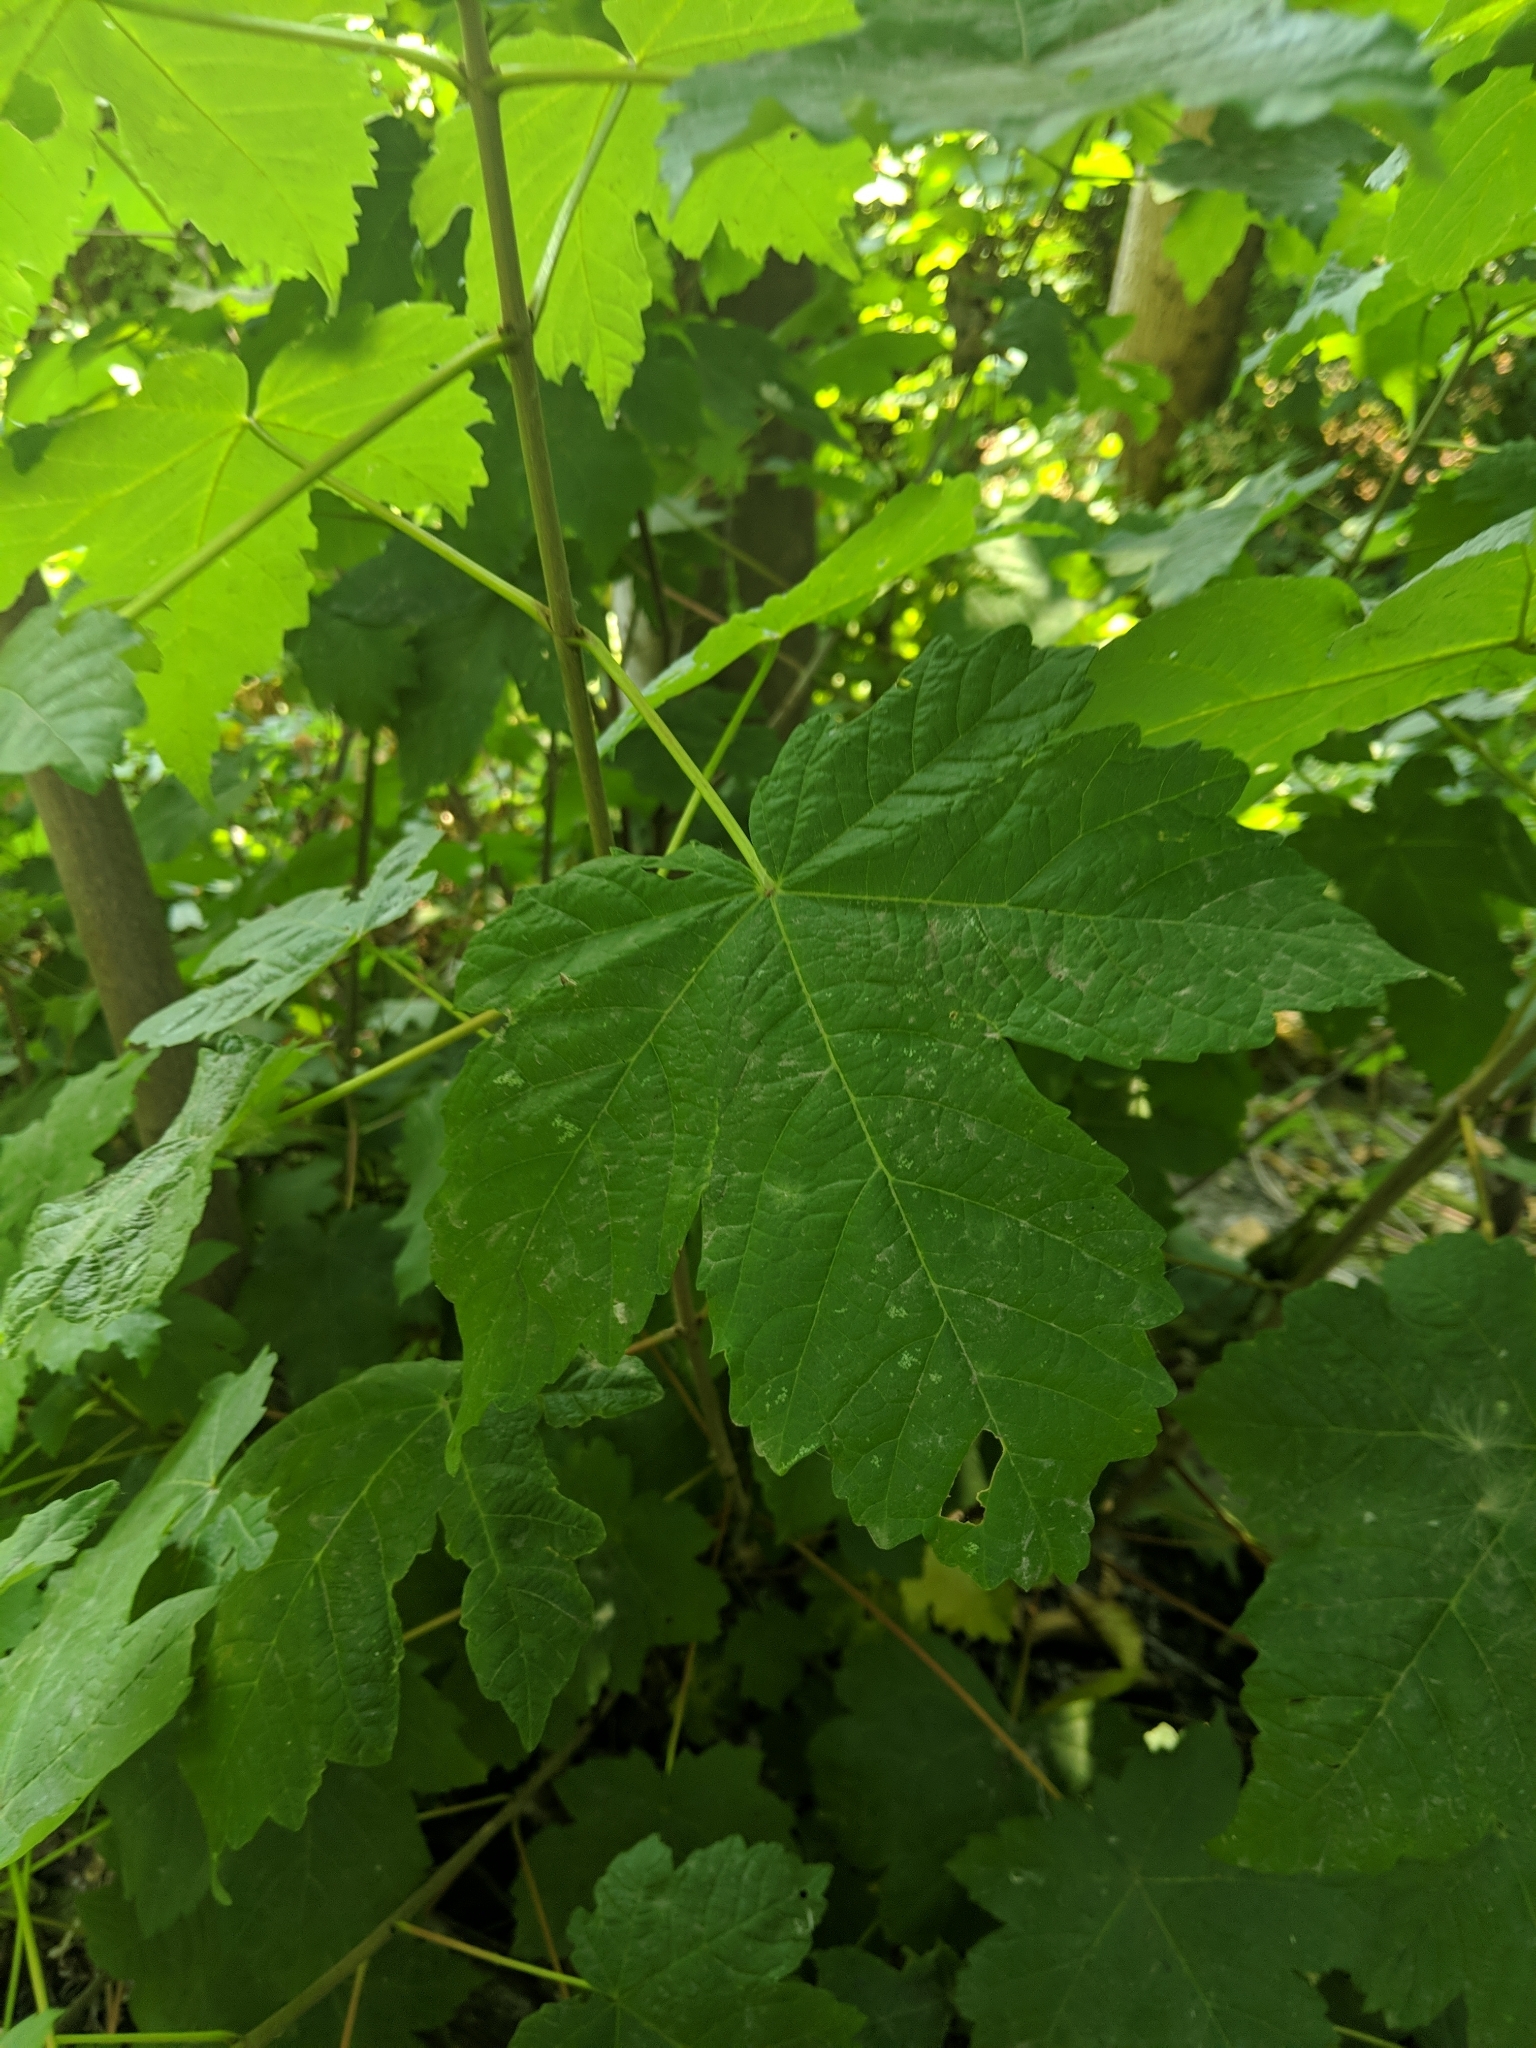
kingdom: Plantae
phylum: Tracheophyta
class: Magnoliopsida
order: Sapindales
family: Sapindaceae
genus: Acer
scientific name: Acer pseudoplatanus
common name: Sycamore
